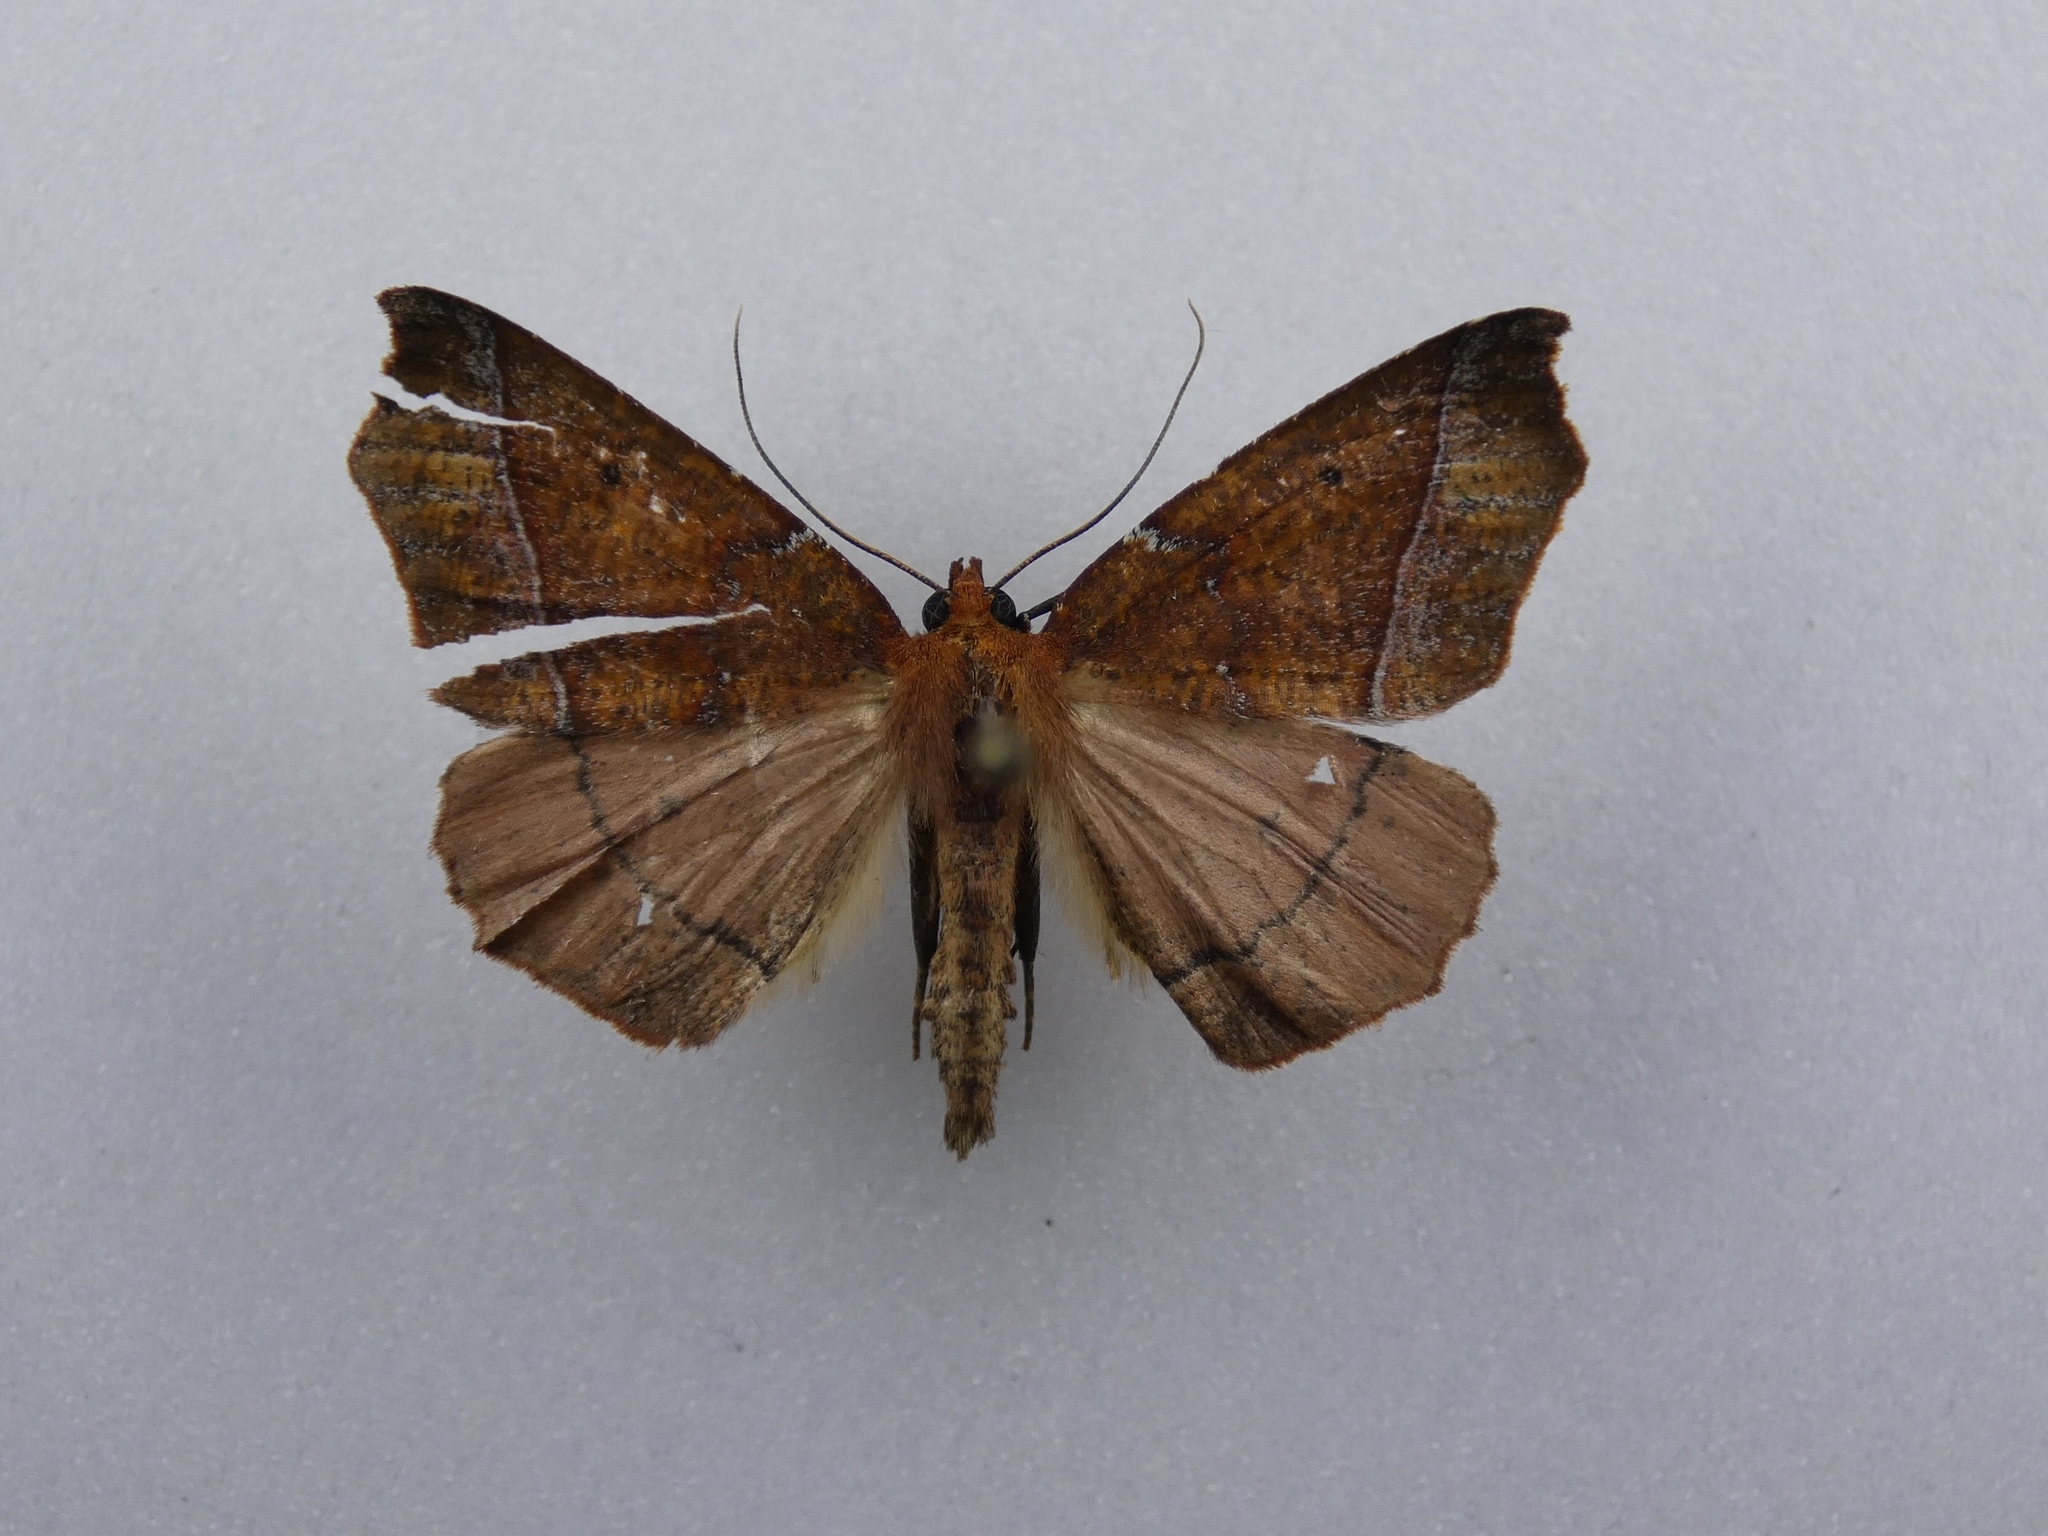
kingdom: Animalia
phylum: Arthropoda
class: Insecta
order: Lepidoptera
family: Geometridae
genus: Ischalis
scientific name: Ischalis nelsonaria
